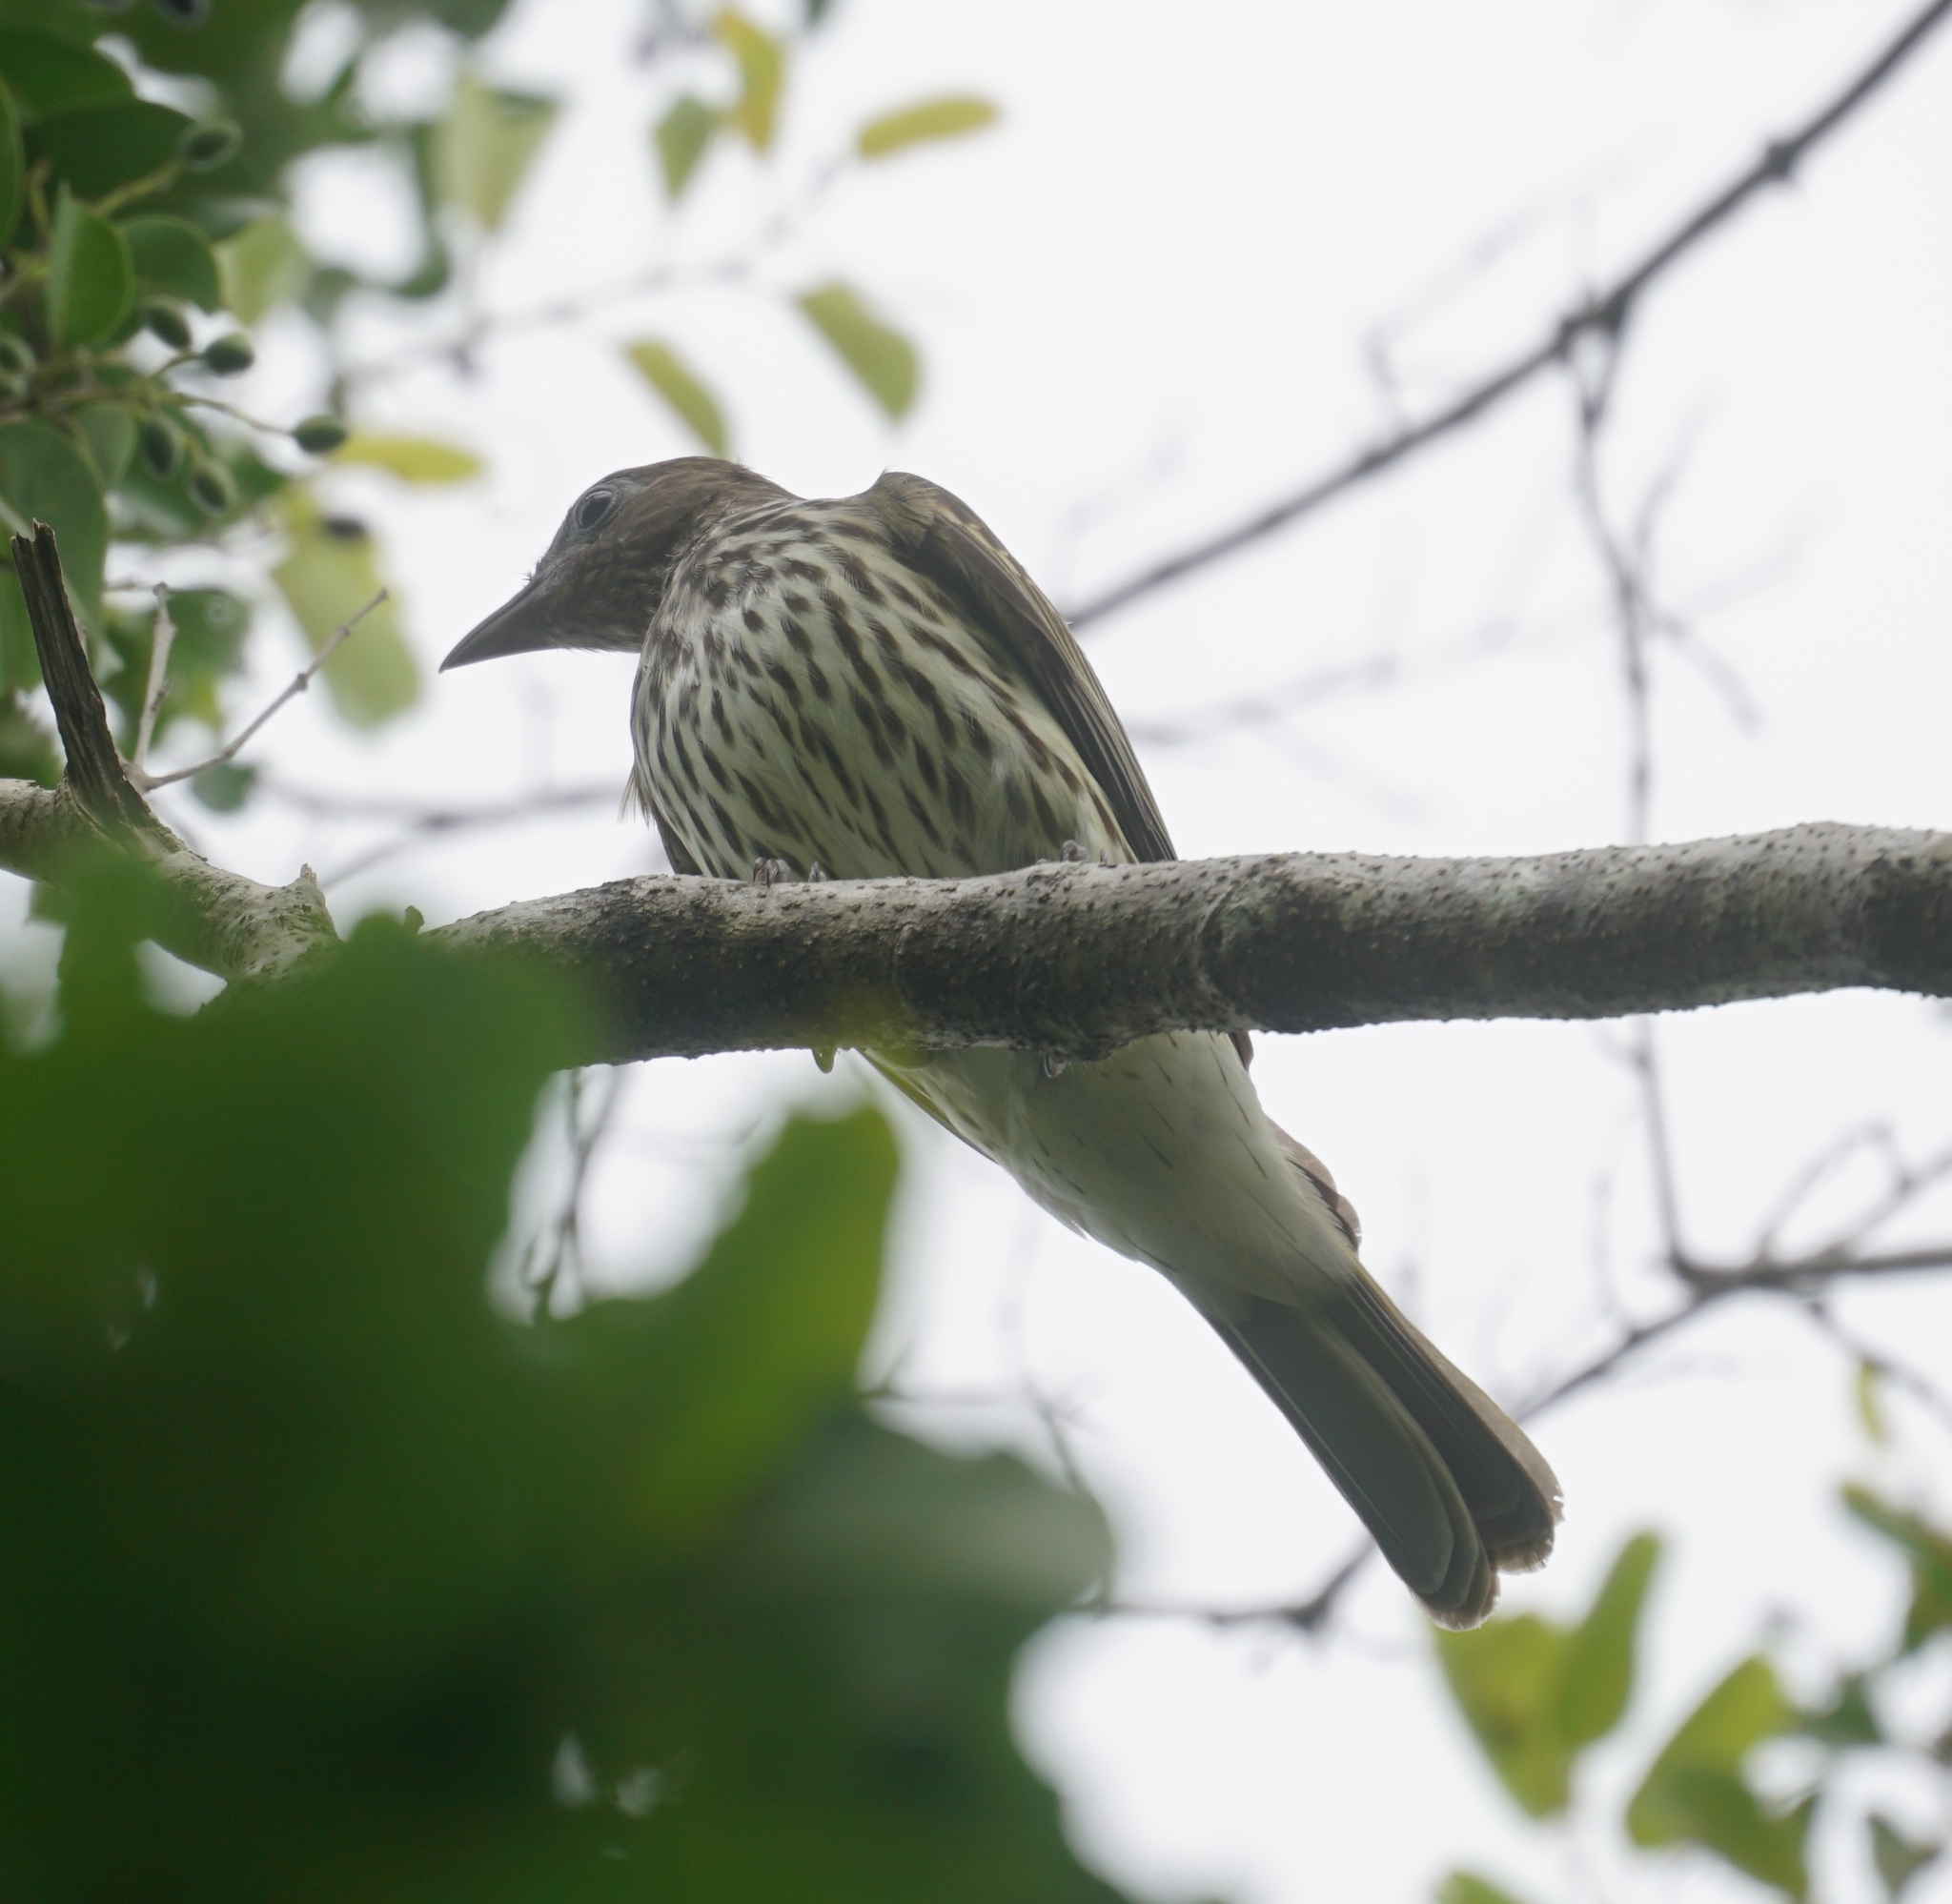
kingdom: Animalia
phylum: Chordata
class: Aves
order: Passeriformes
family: Oriolidae
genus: Sphecotheres
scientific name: Sphecotheres vieilloti
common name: Australasian figbird
